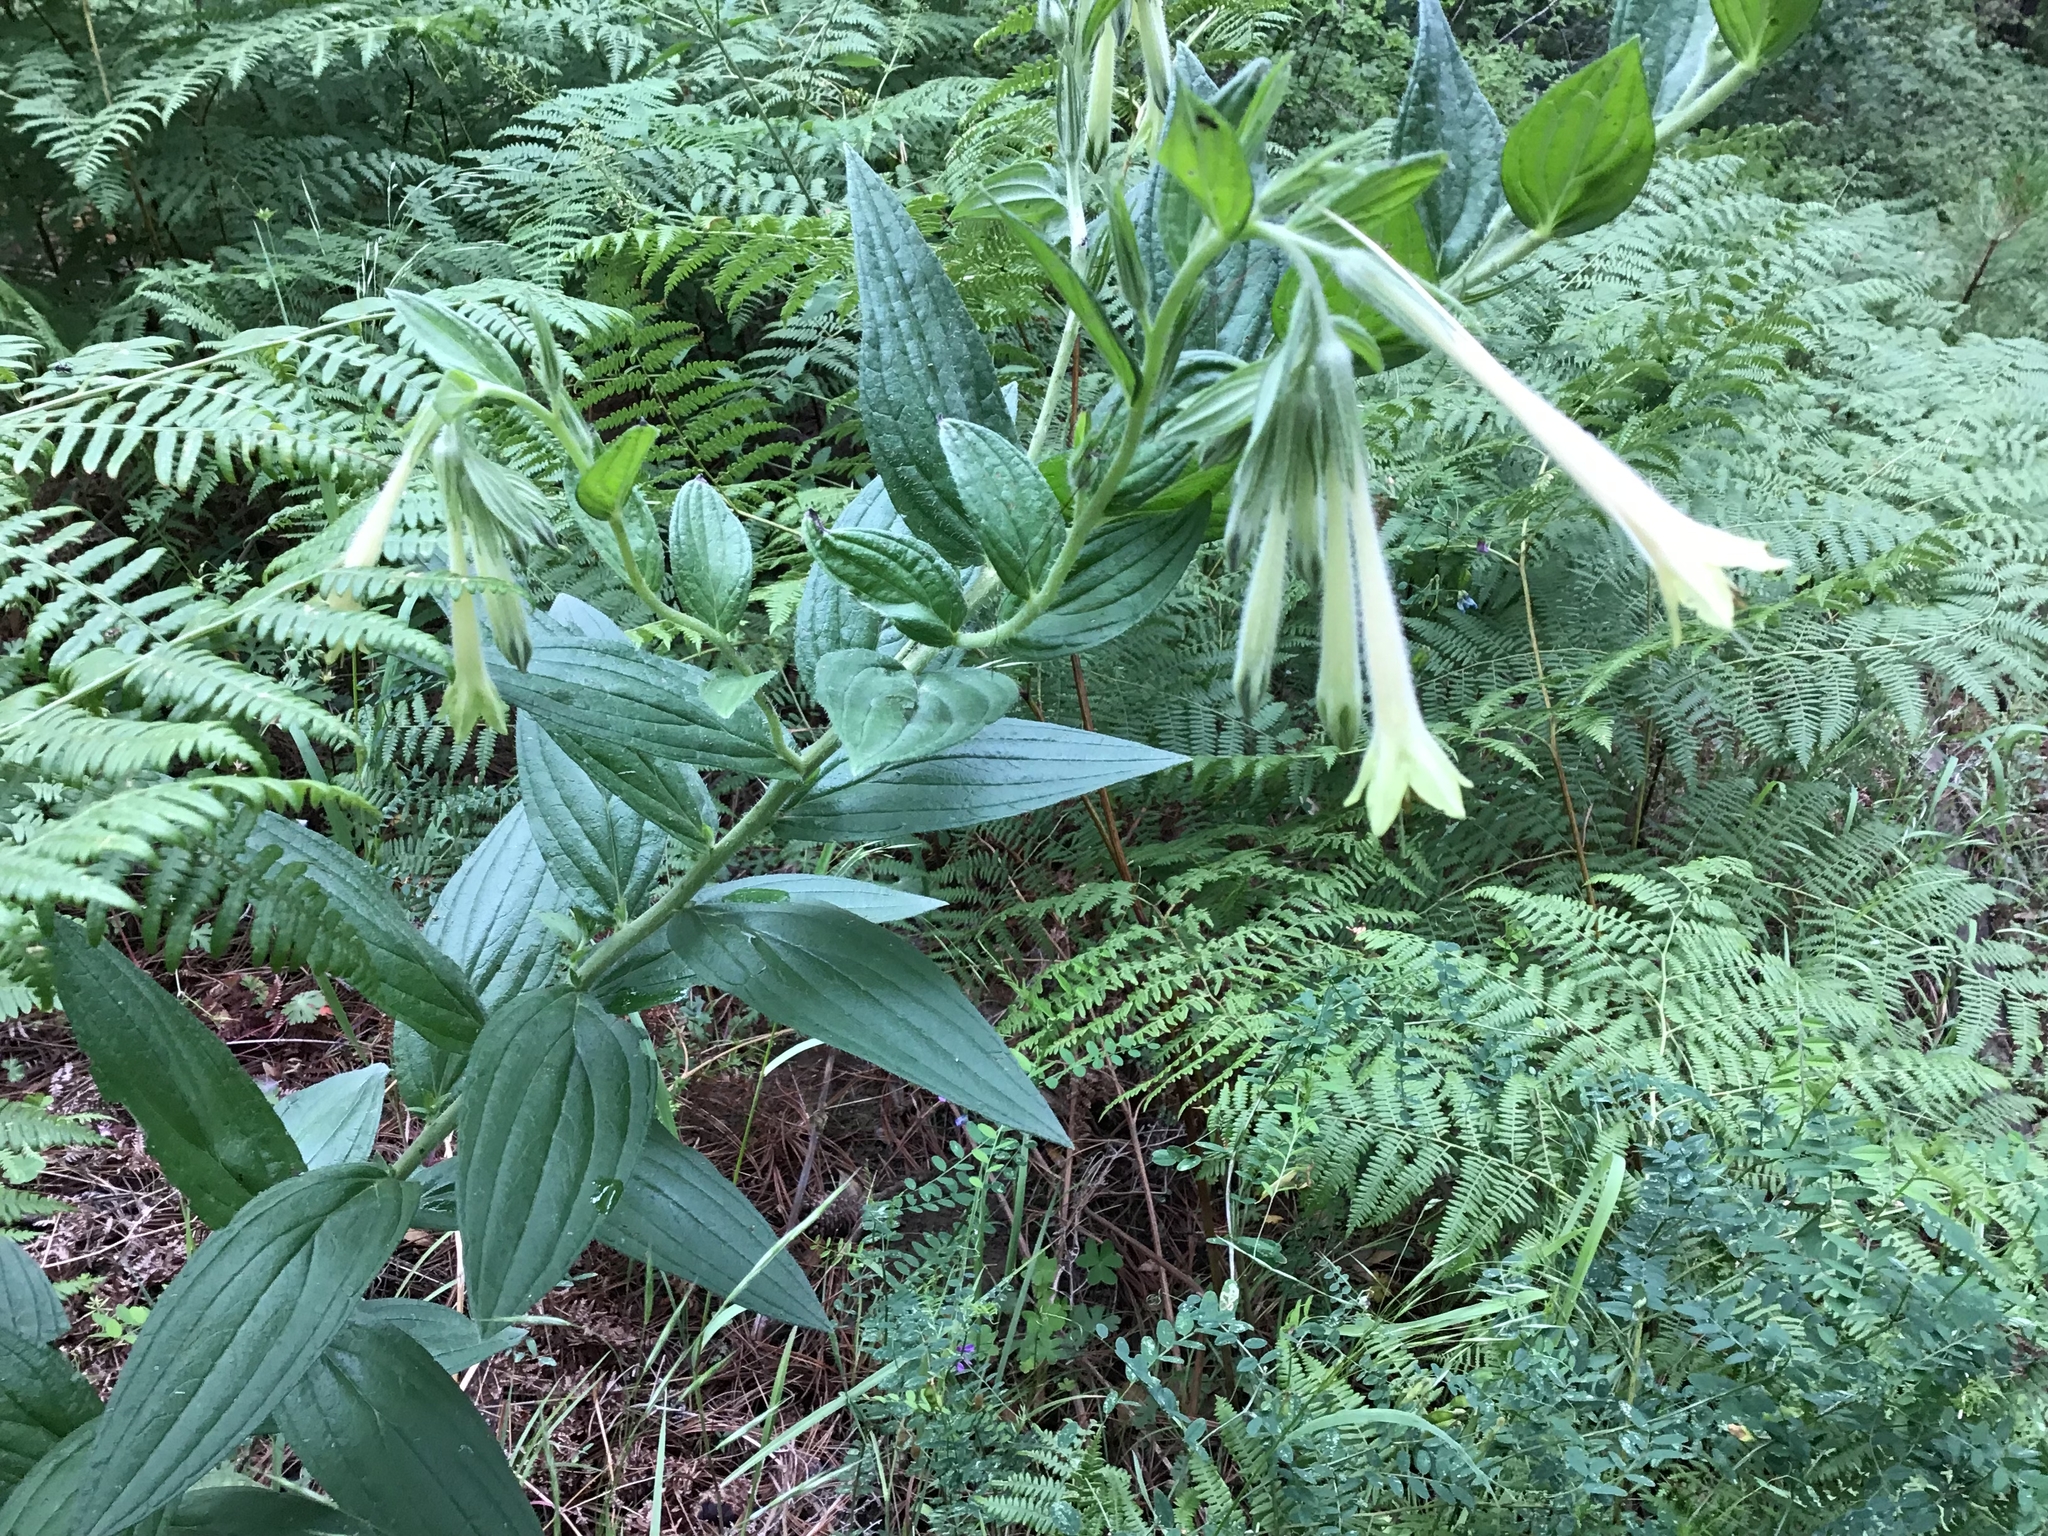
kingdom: Plantae
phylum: Tracheophyta
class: Magnoliopsida
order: Boraginales
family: Boraginaceae
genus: Lithospermum
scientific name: Lithospermum thurberi
